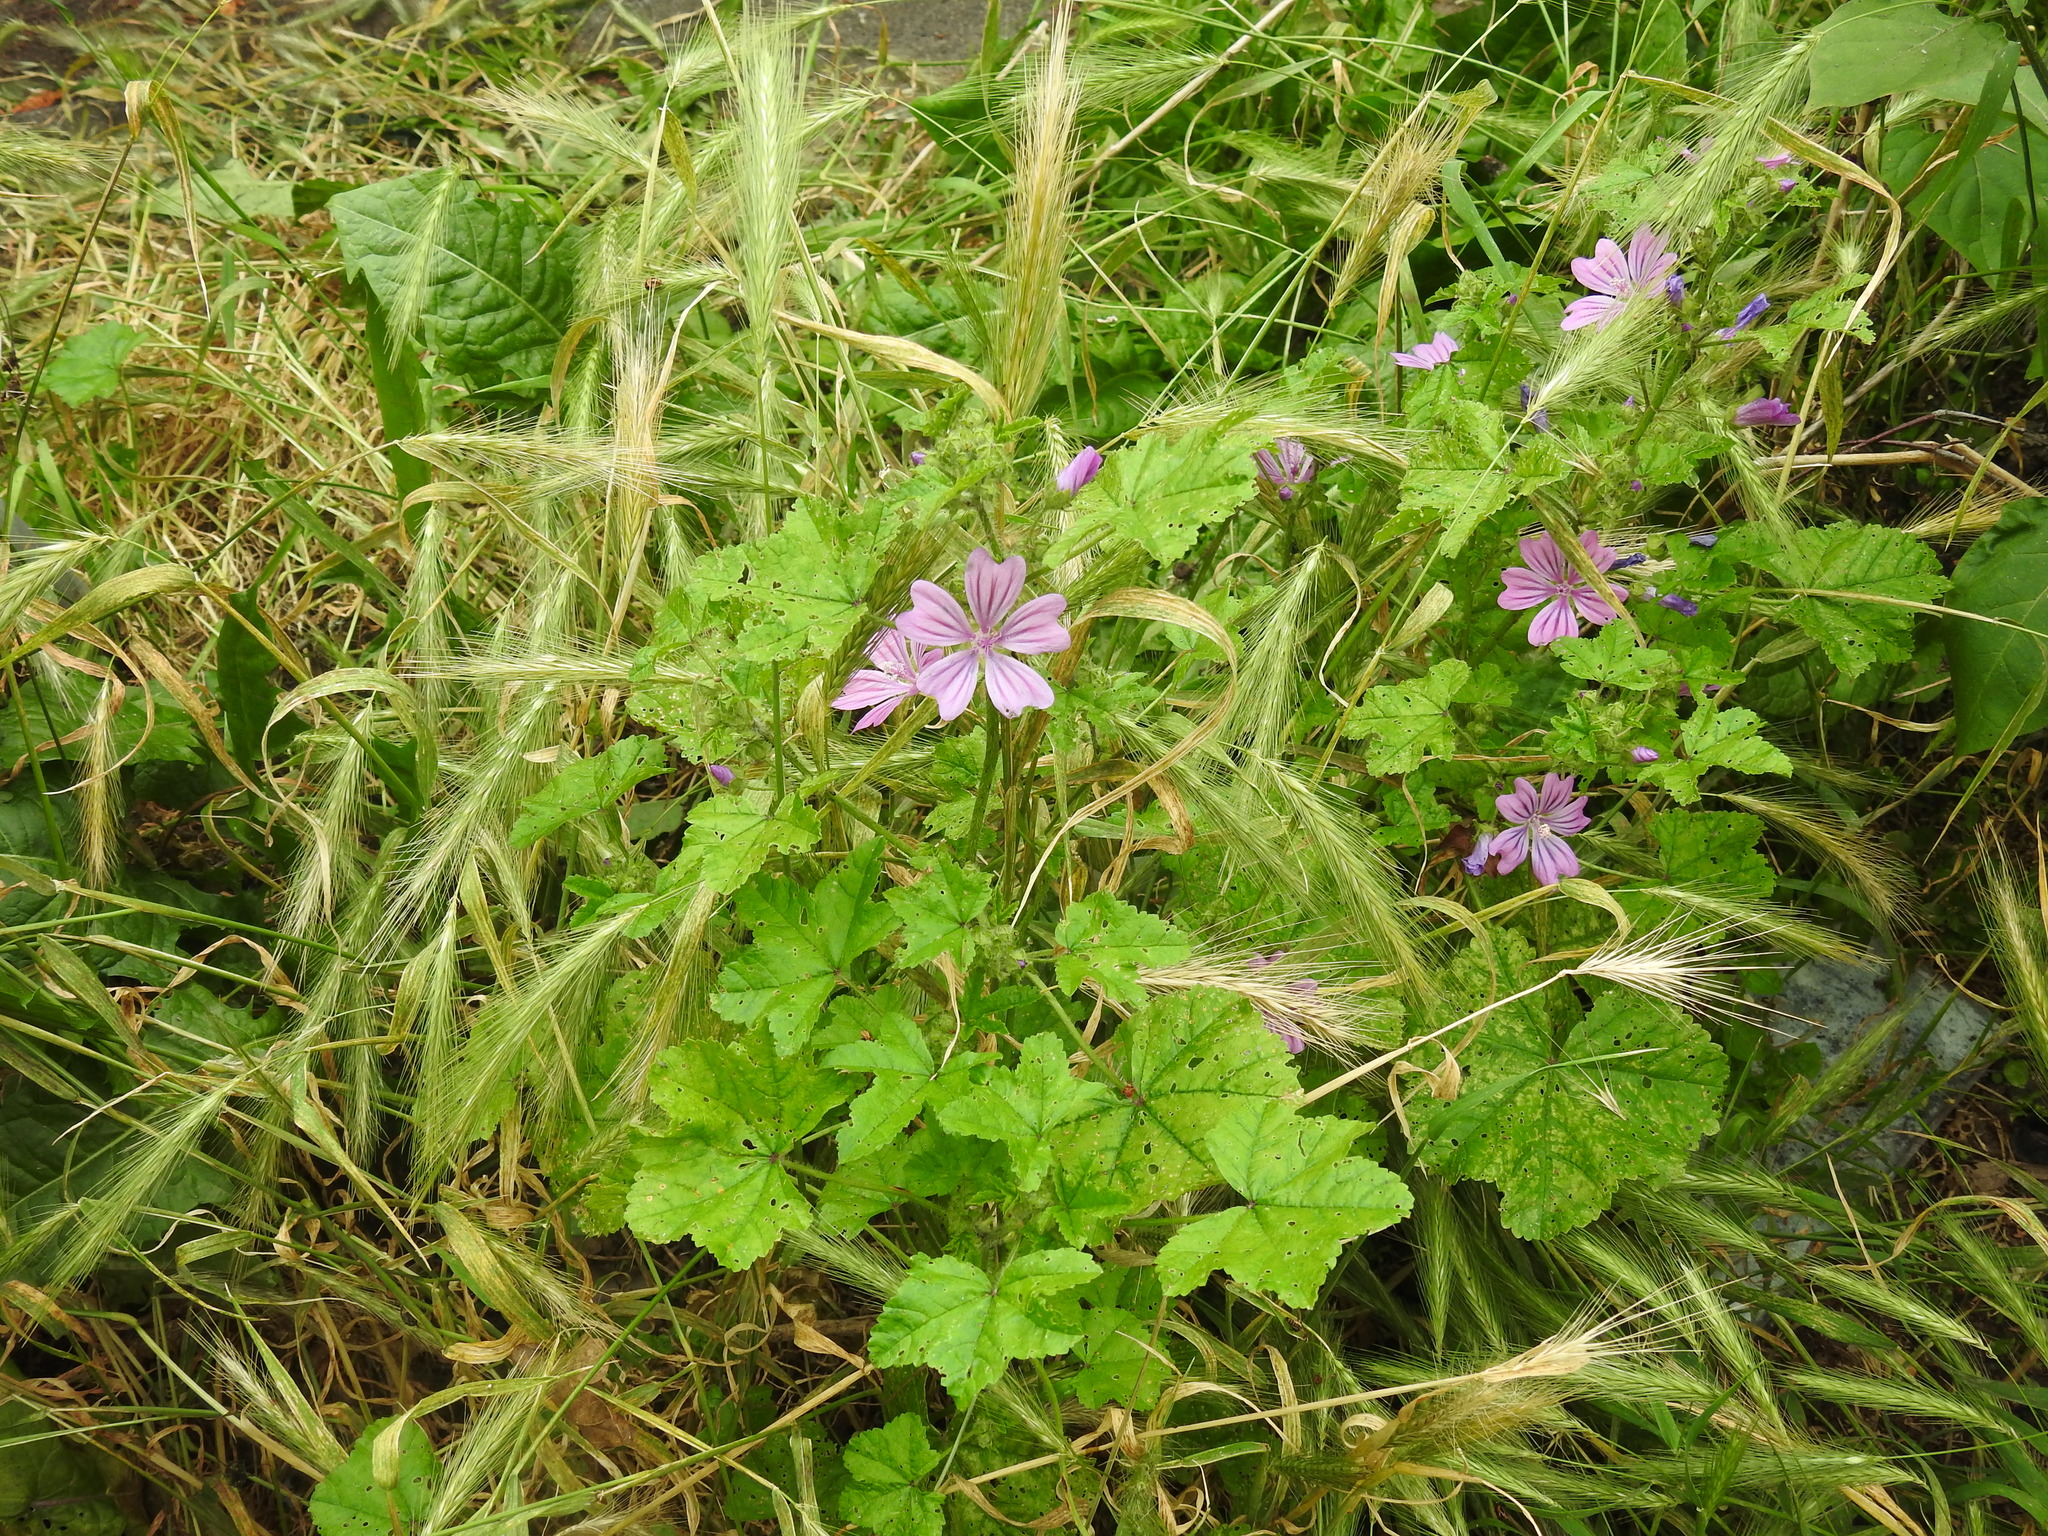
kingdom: Plantae
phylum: Tracheophyta
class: Magnoliopsida
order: Malvales
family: Malvaceae
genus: Malva
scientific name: Malva sylvestris
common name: Common mallow
